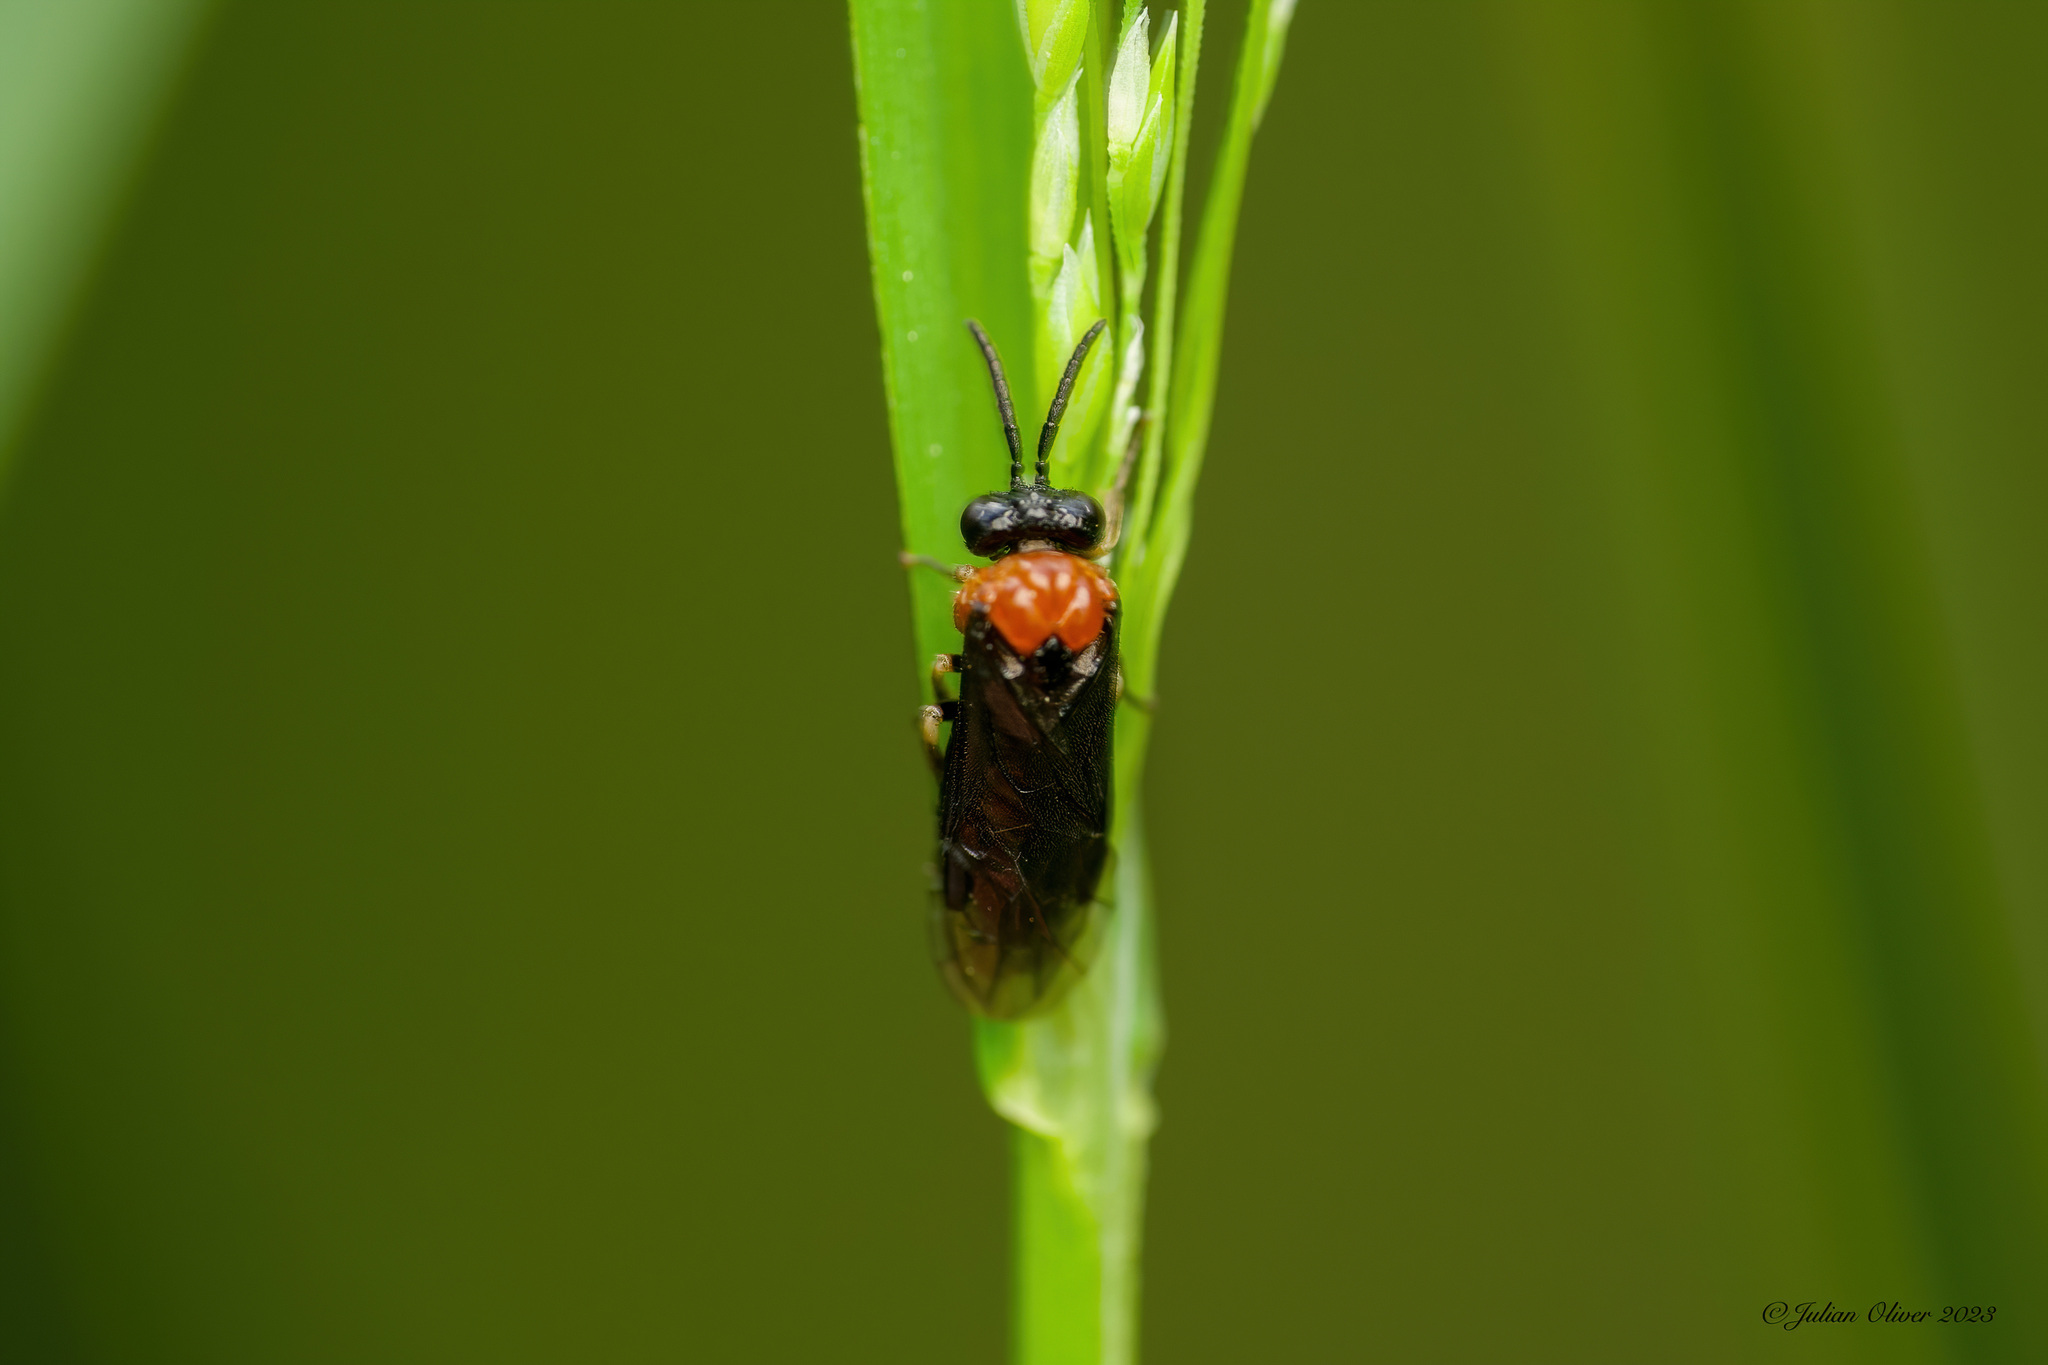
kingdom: Animalia
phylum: Arthropoda
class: Insecta
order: Hymenoptera
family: Tenthredinidae
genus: Eutomostethus
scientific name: Eutomostethus ephippium
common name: Tenthredid wasp
